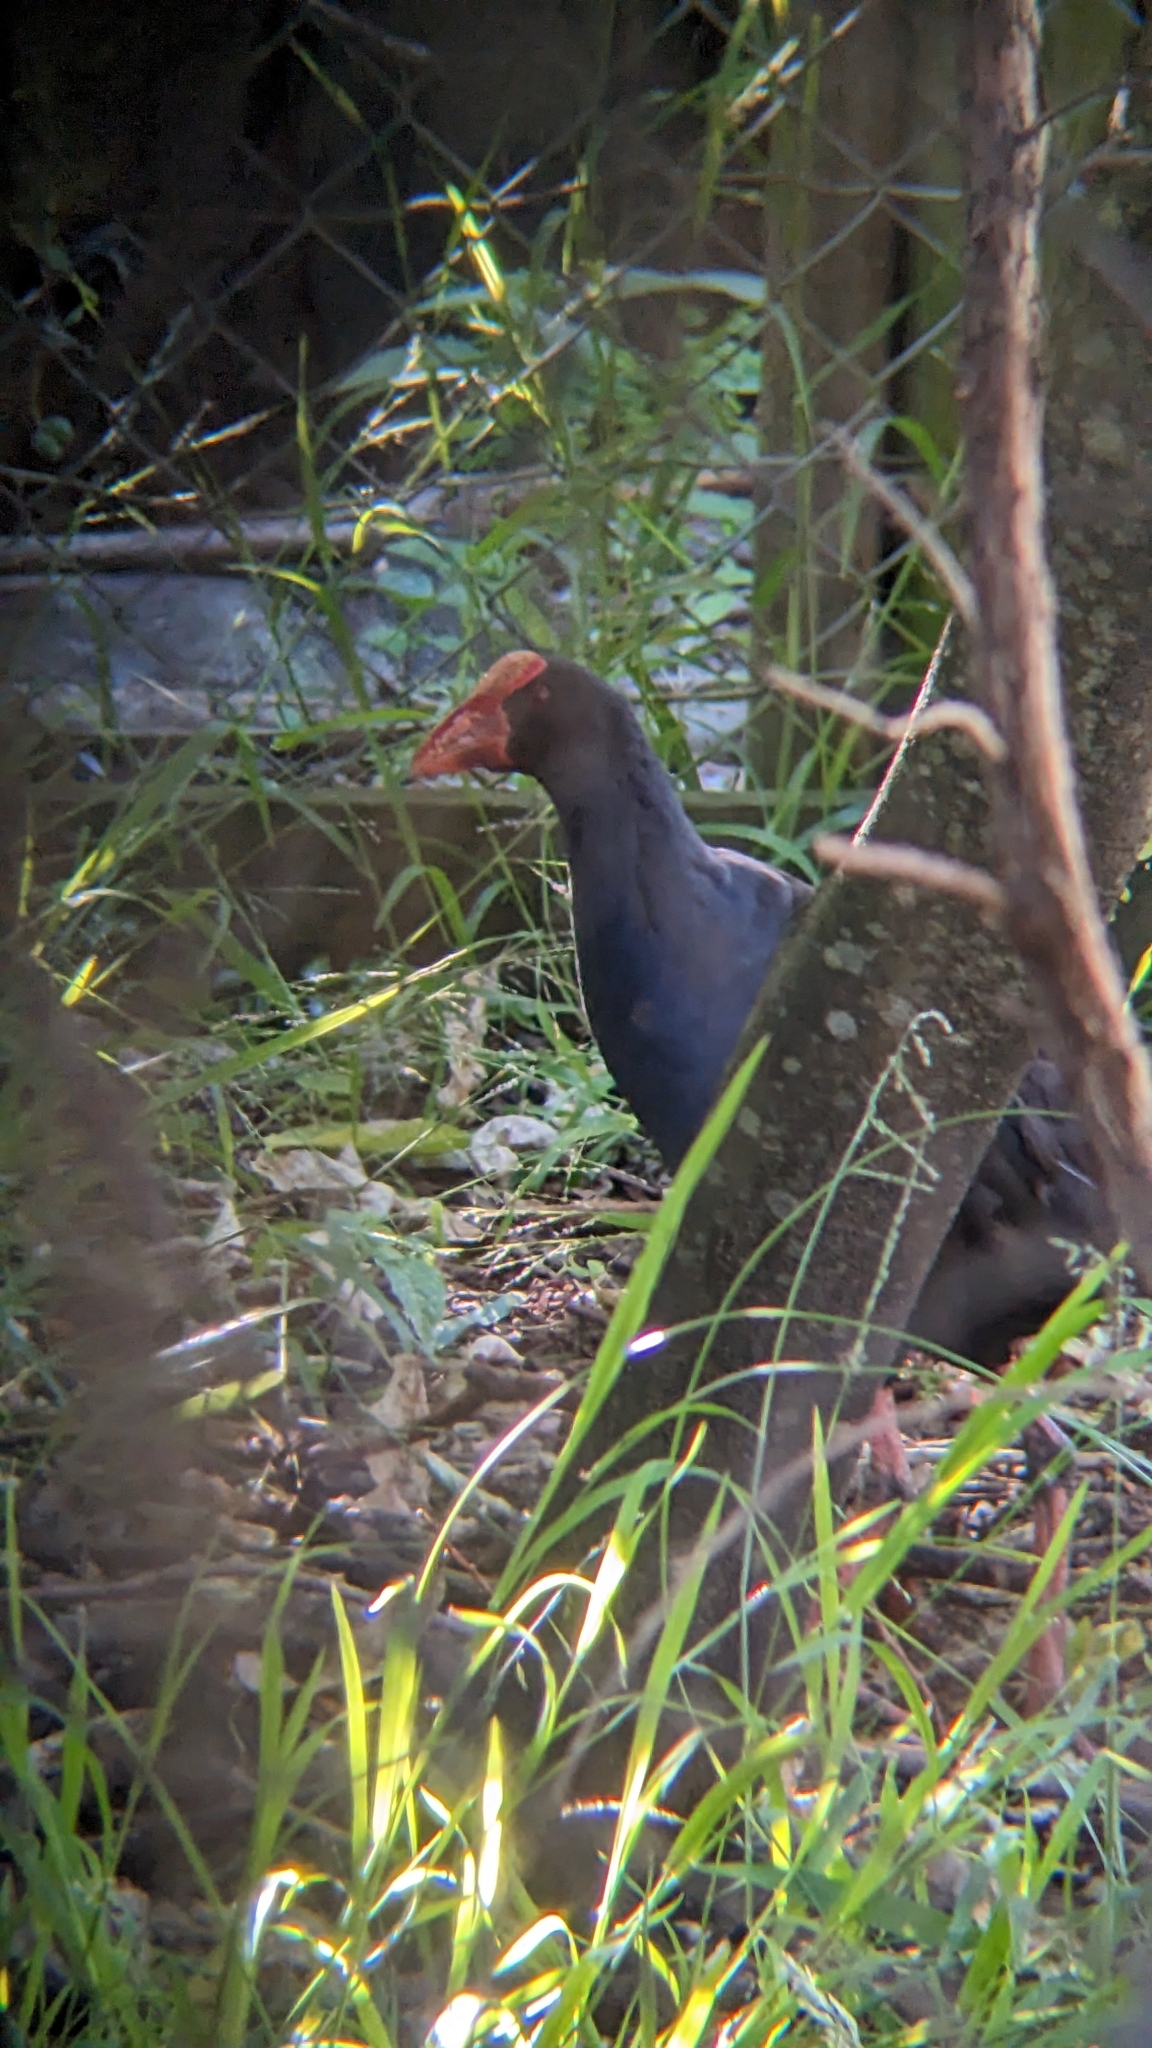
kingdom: Animalia
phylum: Chordata
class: Aves
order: Gruiformes
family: Rallidae
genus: Porphyrio
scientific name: Porphyrio melanotus
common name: Australasian swamphen
